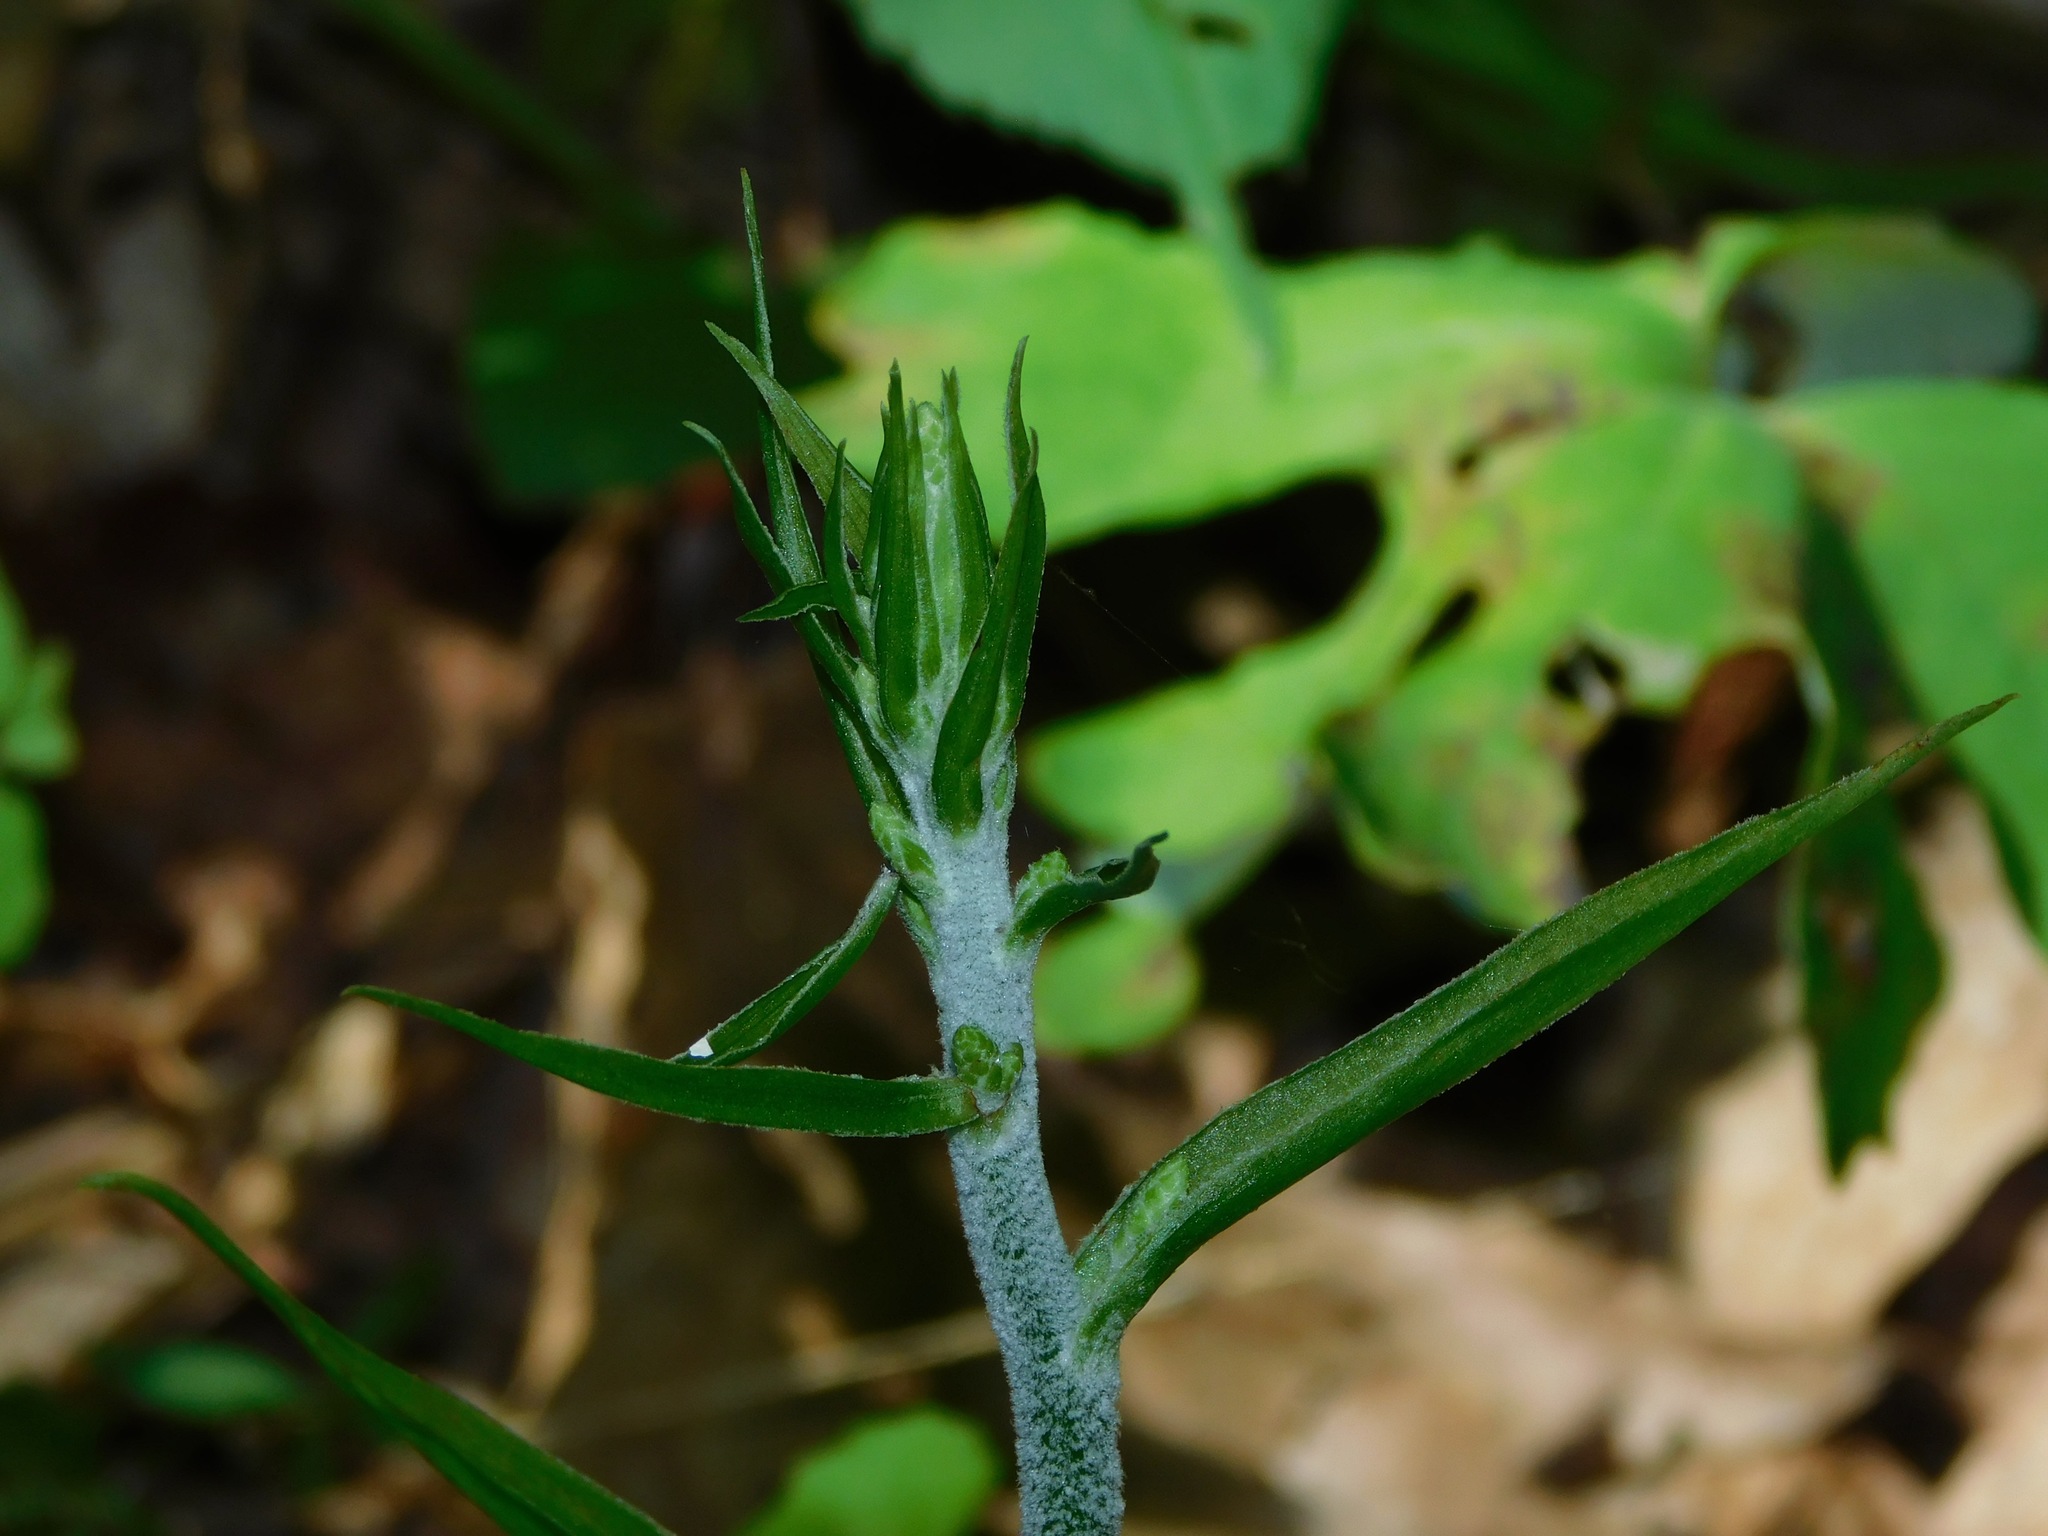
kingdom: Plantae
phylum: Tracheophyta
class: Liliopsida
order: Liliales
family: Melanthiaceae
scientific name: Melanthiaceae
